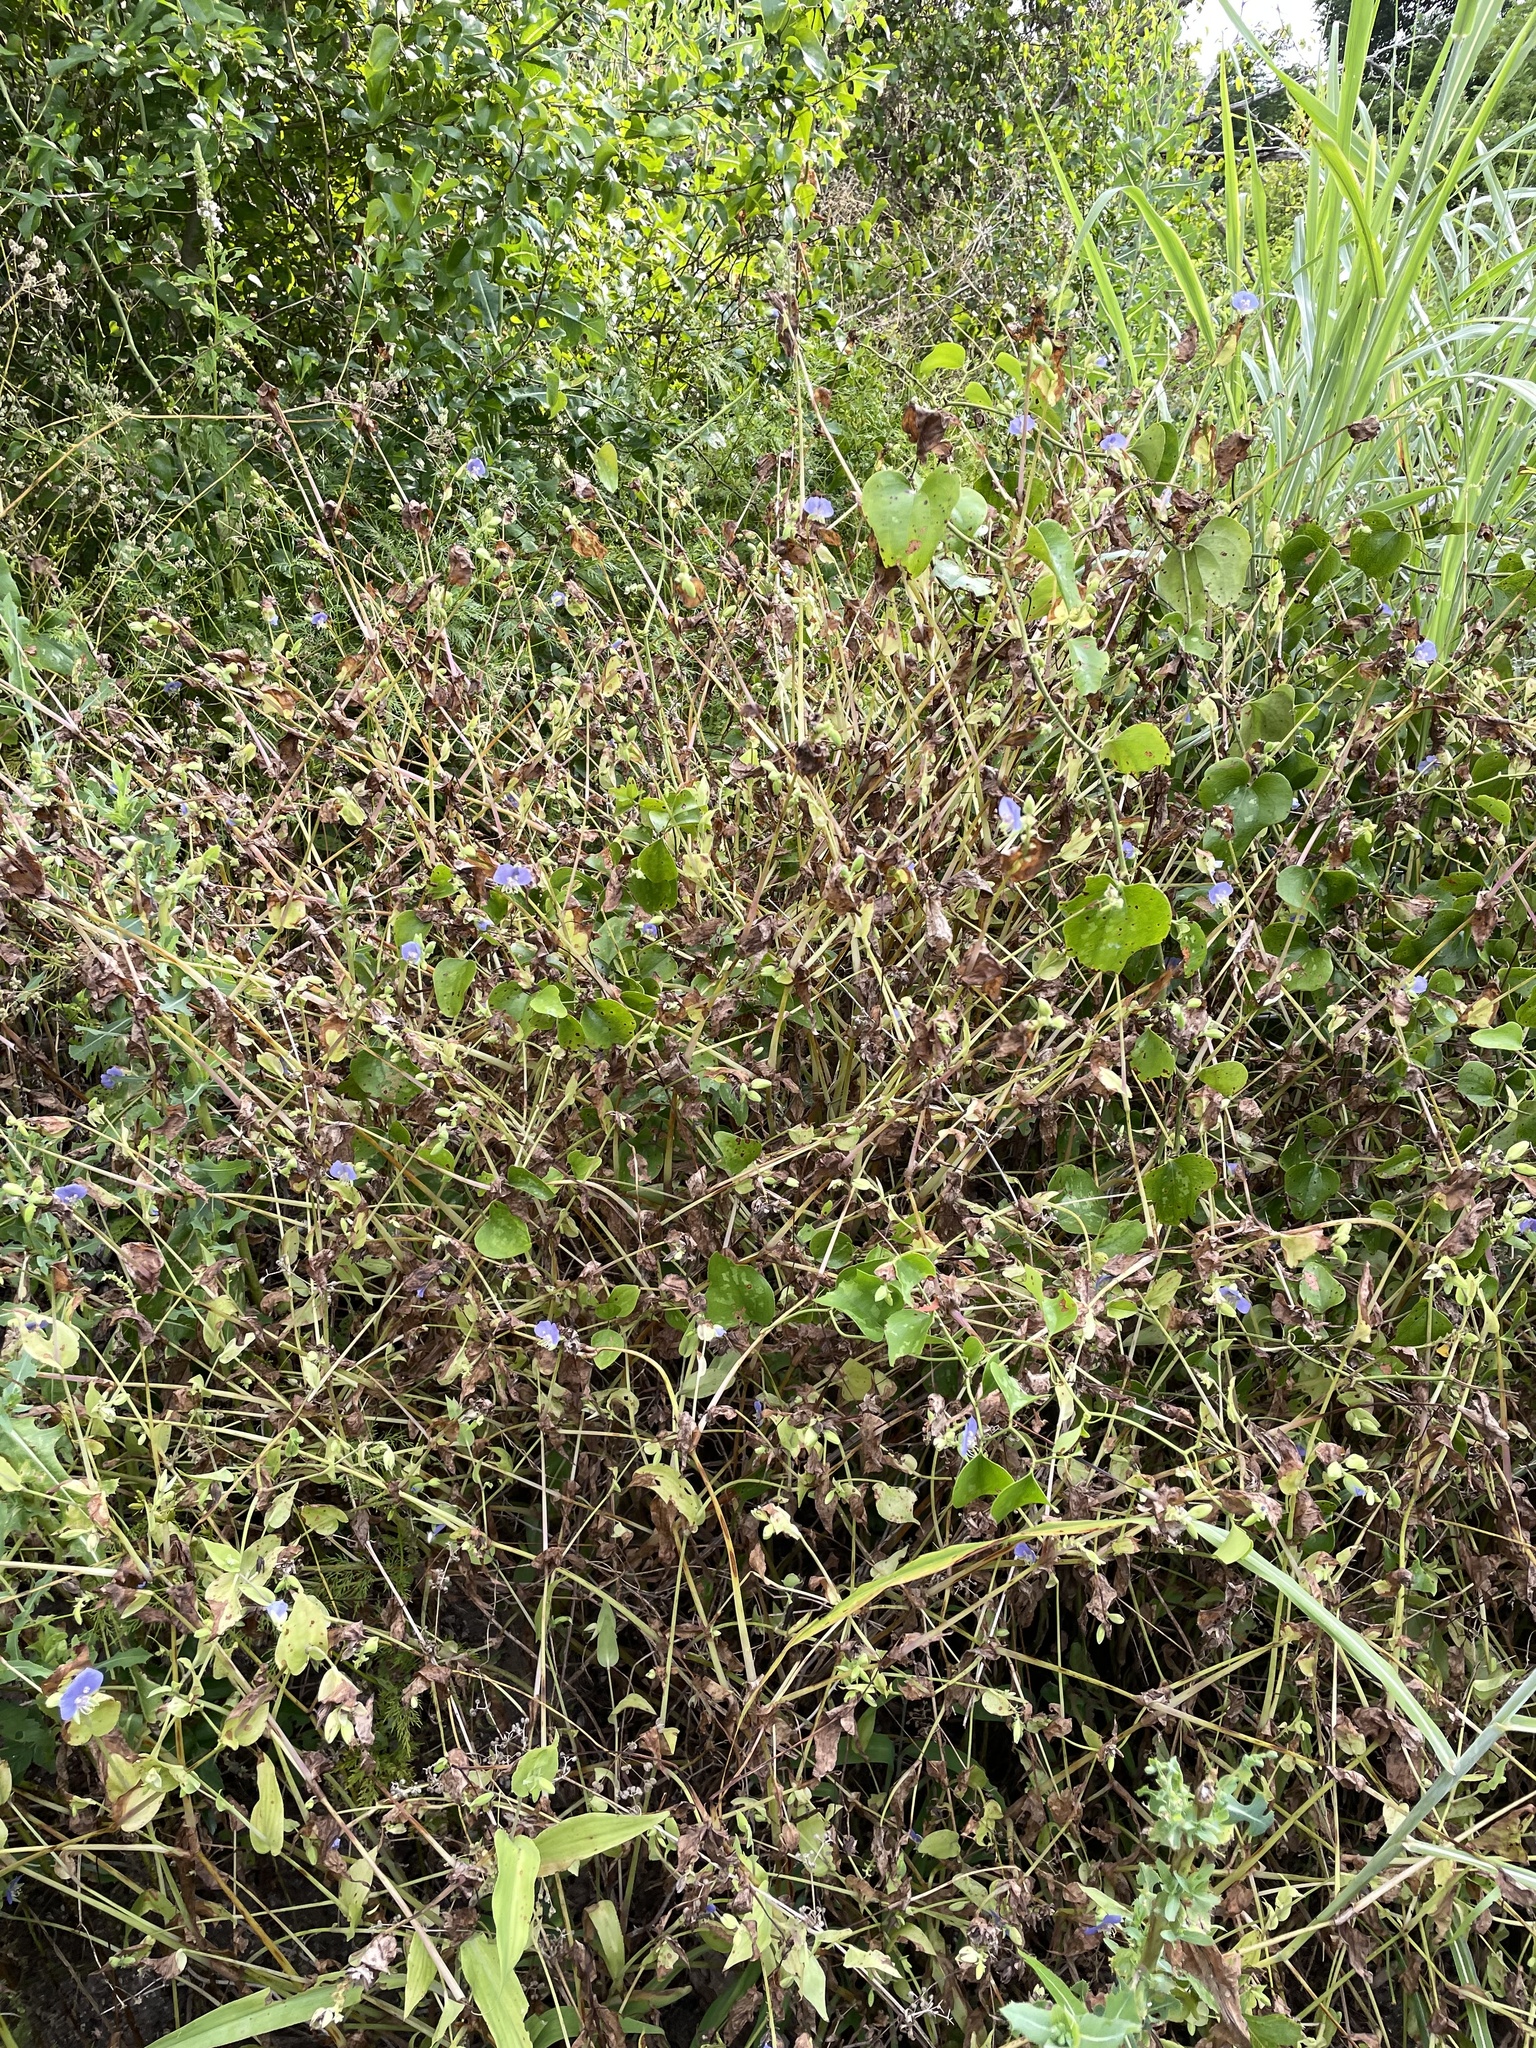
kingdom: Plantae
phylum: Tracheophyta
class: Liliopsida
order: Commelinales
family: Commelinaceae
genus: Tinantia
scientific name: Tinantia anomala
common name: False dayflower
